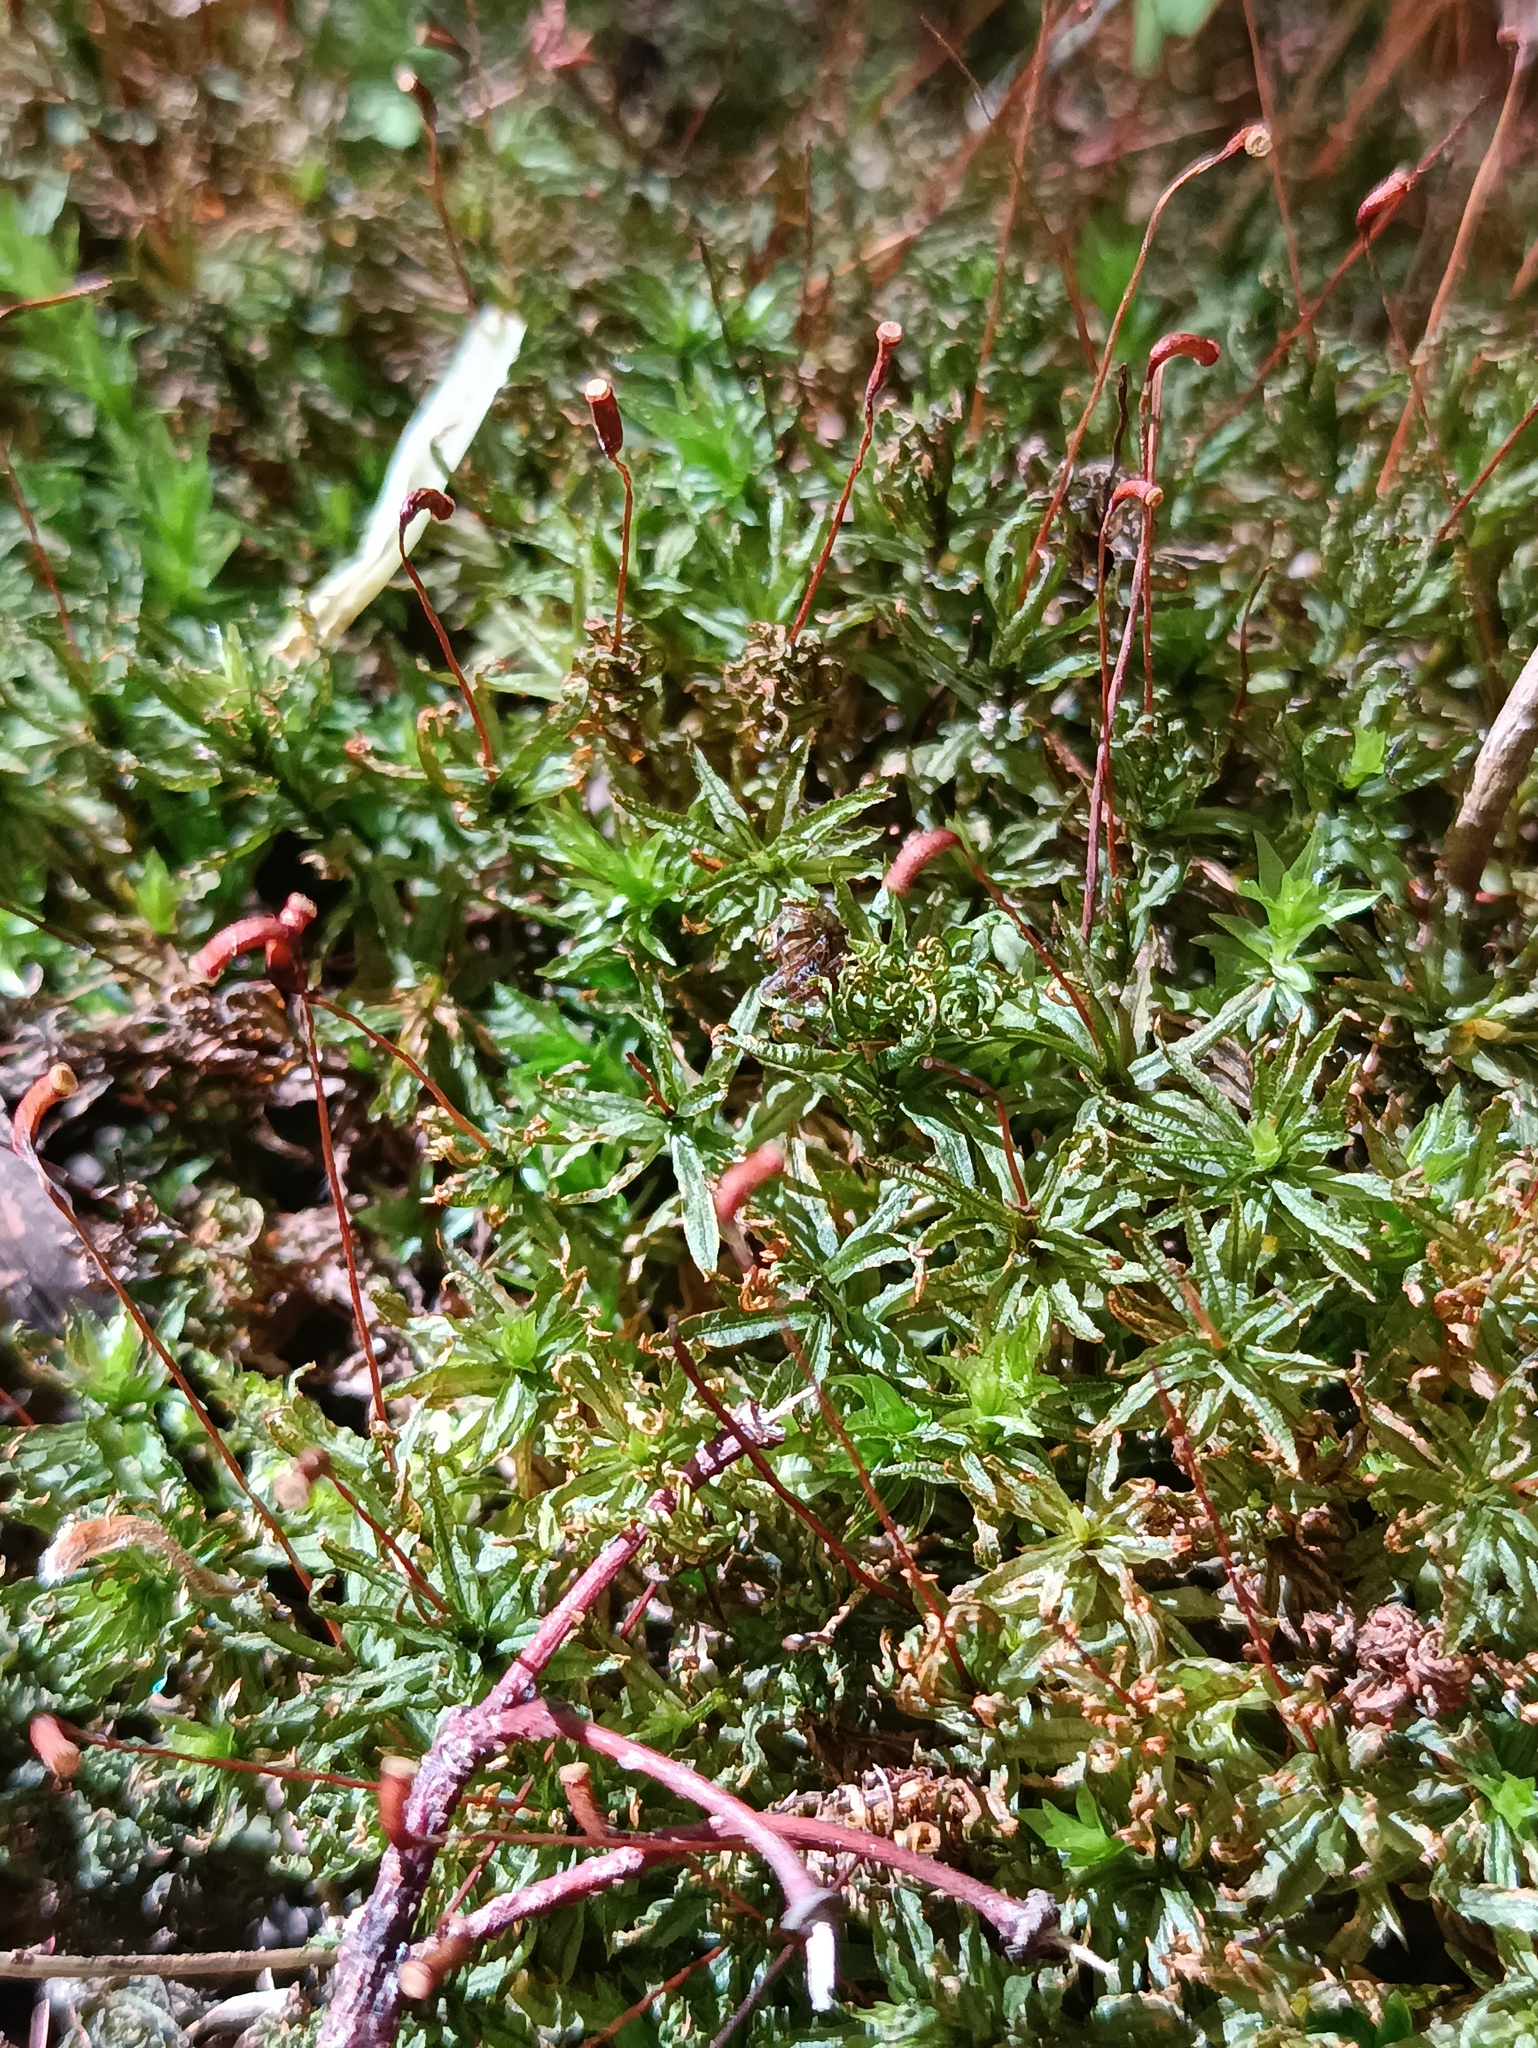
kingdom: Plantae
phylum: Bryophyta
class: Polytrichopsida
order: Polytrichales
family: Polytrichaceae
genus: Atrichum
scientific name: Atrichum undulatum
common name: Common smoothcap
